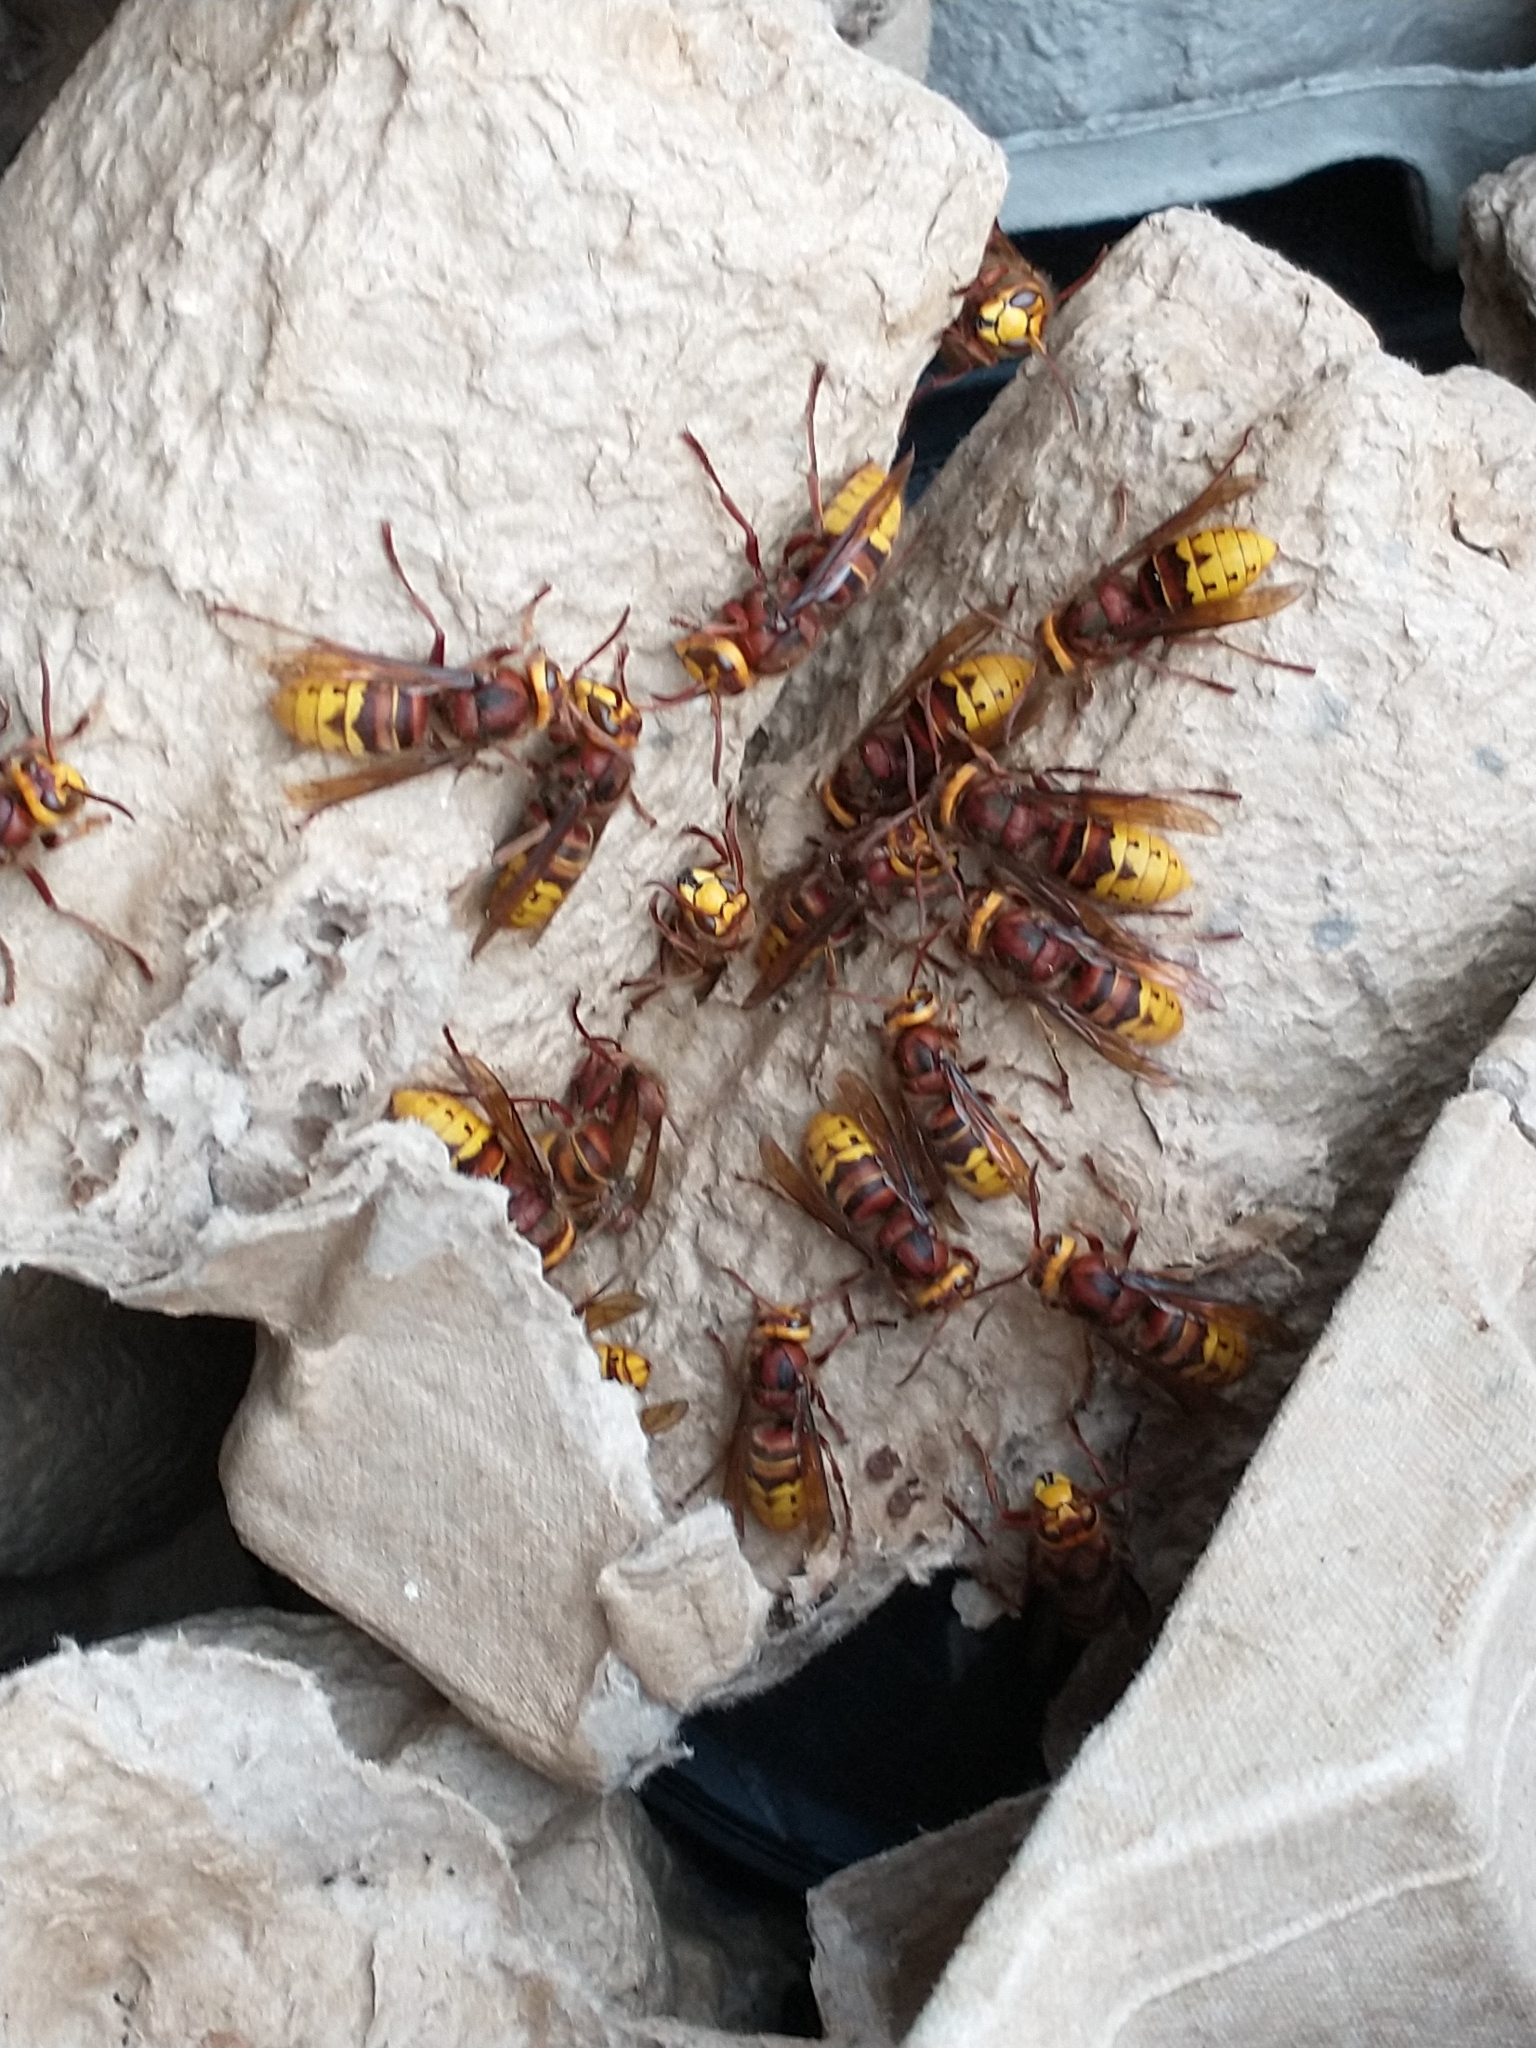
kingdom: Animalia
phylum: Arthropoda
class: Insecta
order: Hymenoptera
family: Vespidae
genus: Vespa
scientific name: Vespa crabro
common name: Hornet
